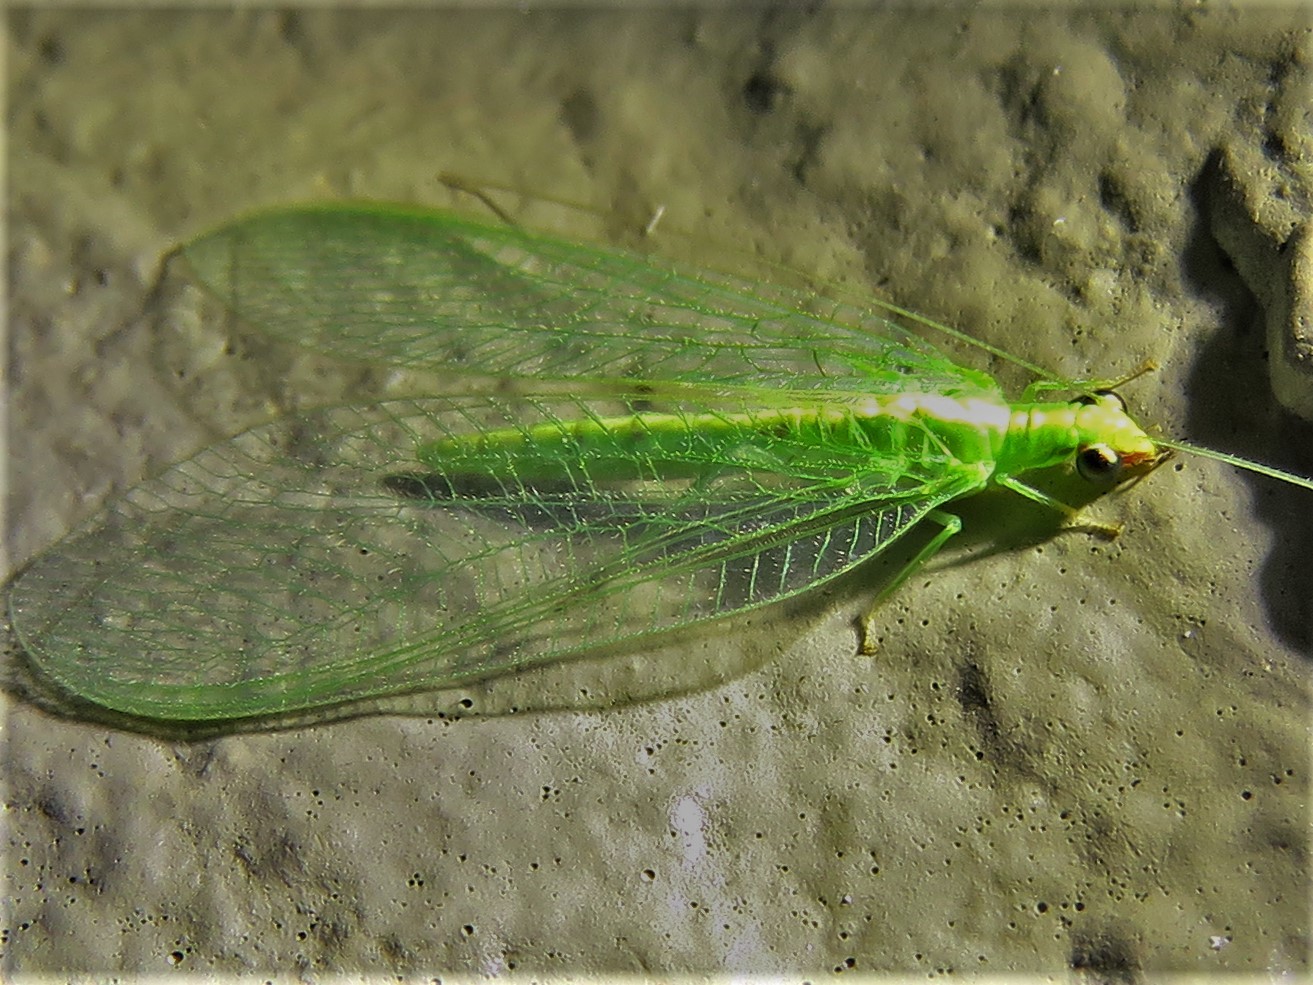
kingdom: Animalia
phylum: Arthropoda
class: Insecta
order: Neuroptera
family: Chrysopidae
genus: Chrysoperla
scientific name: Chrysoperla rufilabris
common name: Red-lipped green lacewing
